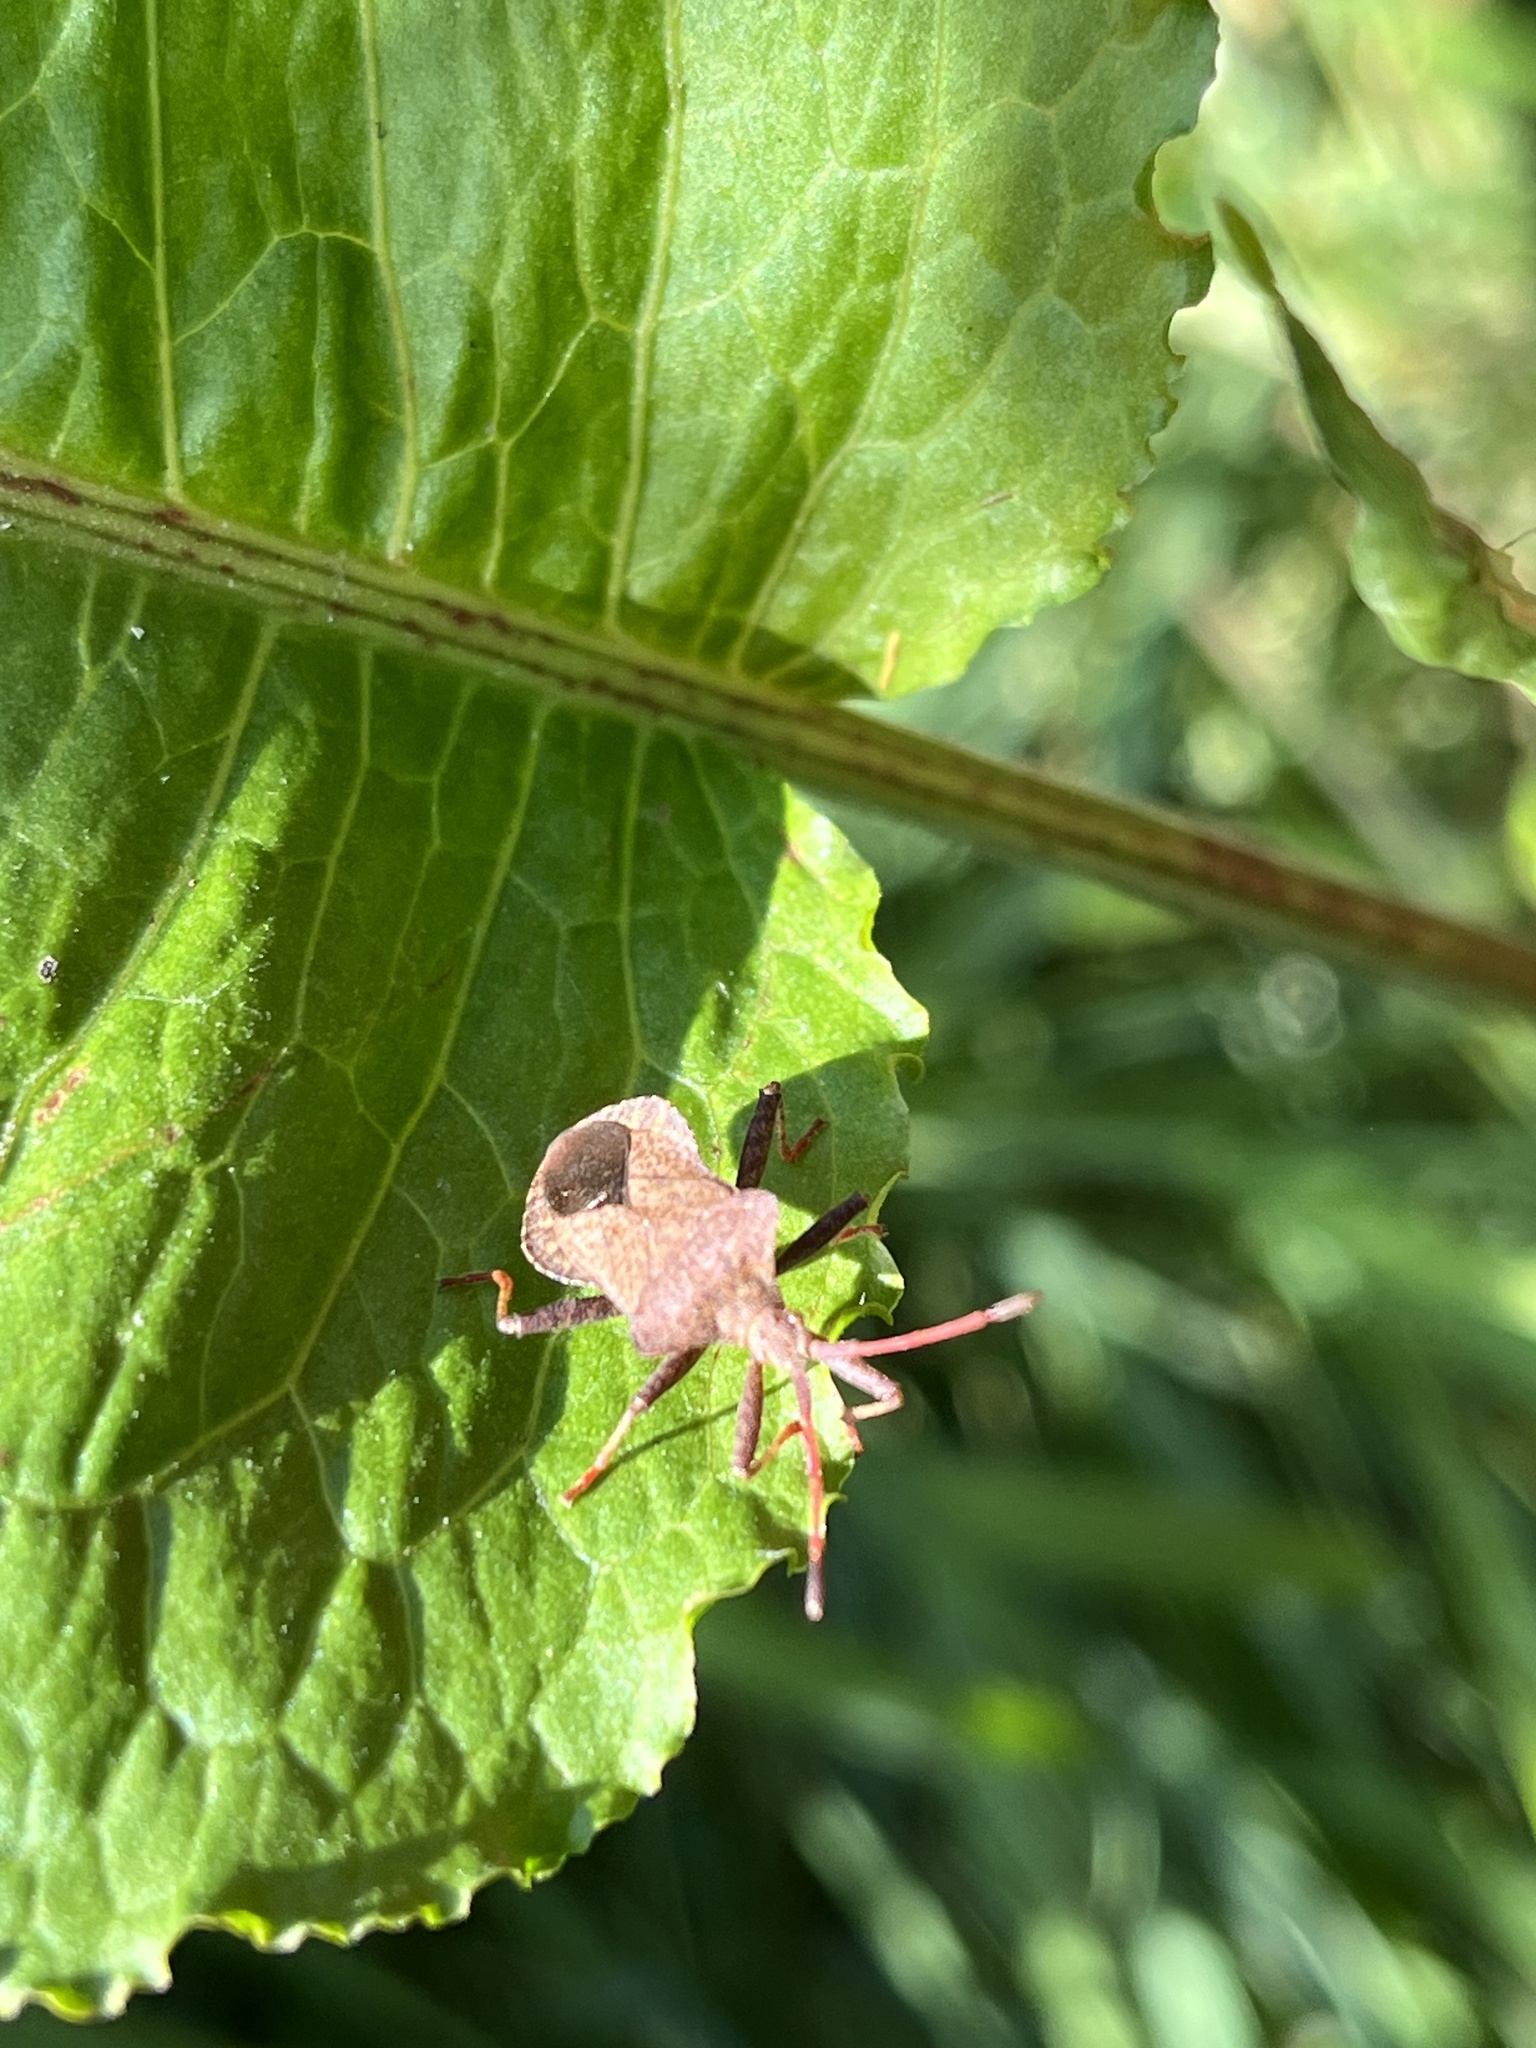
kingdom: Animalia
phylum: Arthropoda
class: Insecta
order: Hemiptera
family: Coreidae
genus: Coreus
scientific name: Coreus marginatus
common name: Dock bug
